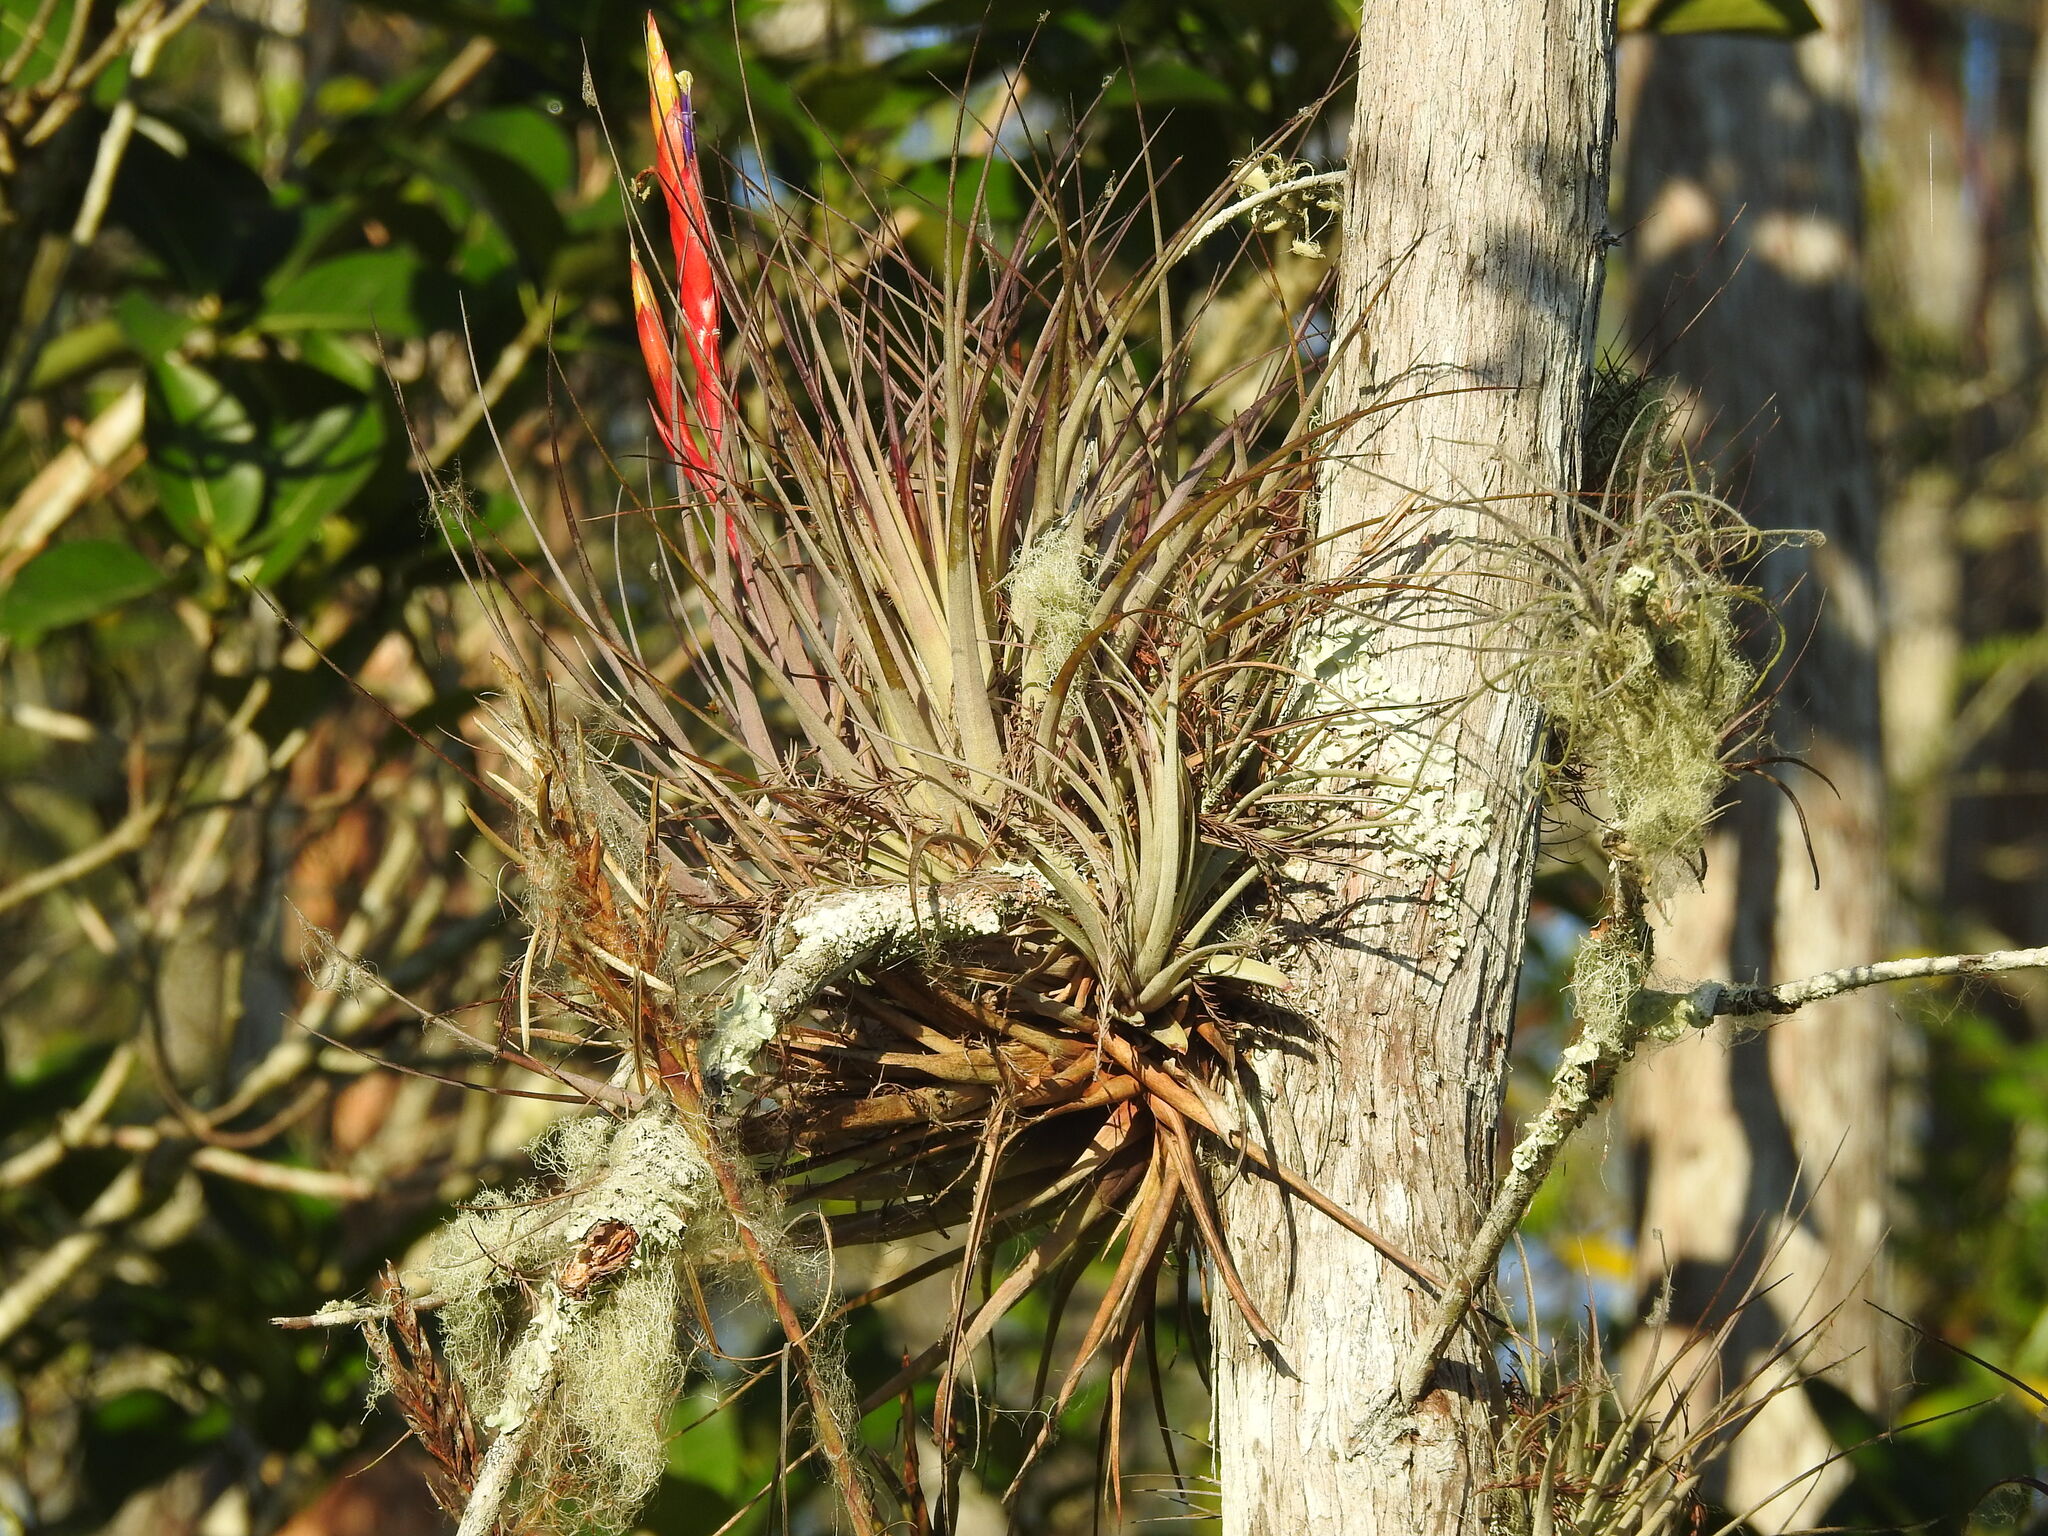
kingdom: Plantae
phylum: Tracheophyta
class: Liliopsida
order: Poales
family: Bromeliaceae
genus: Tillandsia
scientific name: Tillandsia fasciculata
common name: Giant airplant
